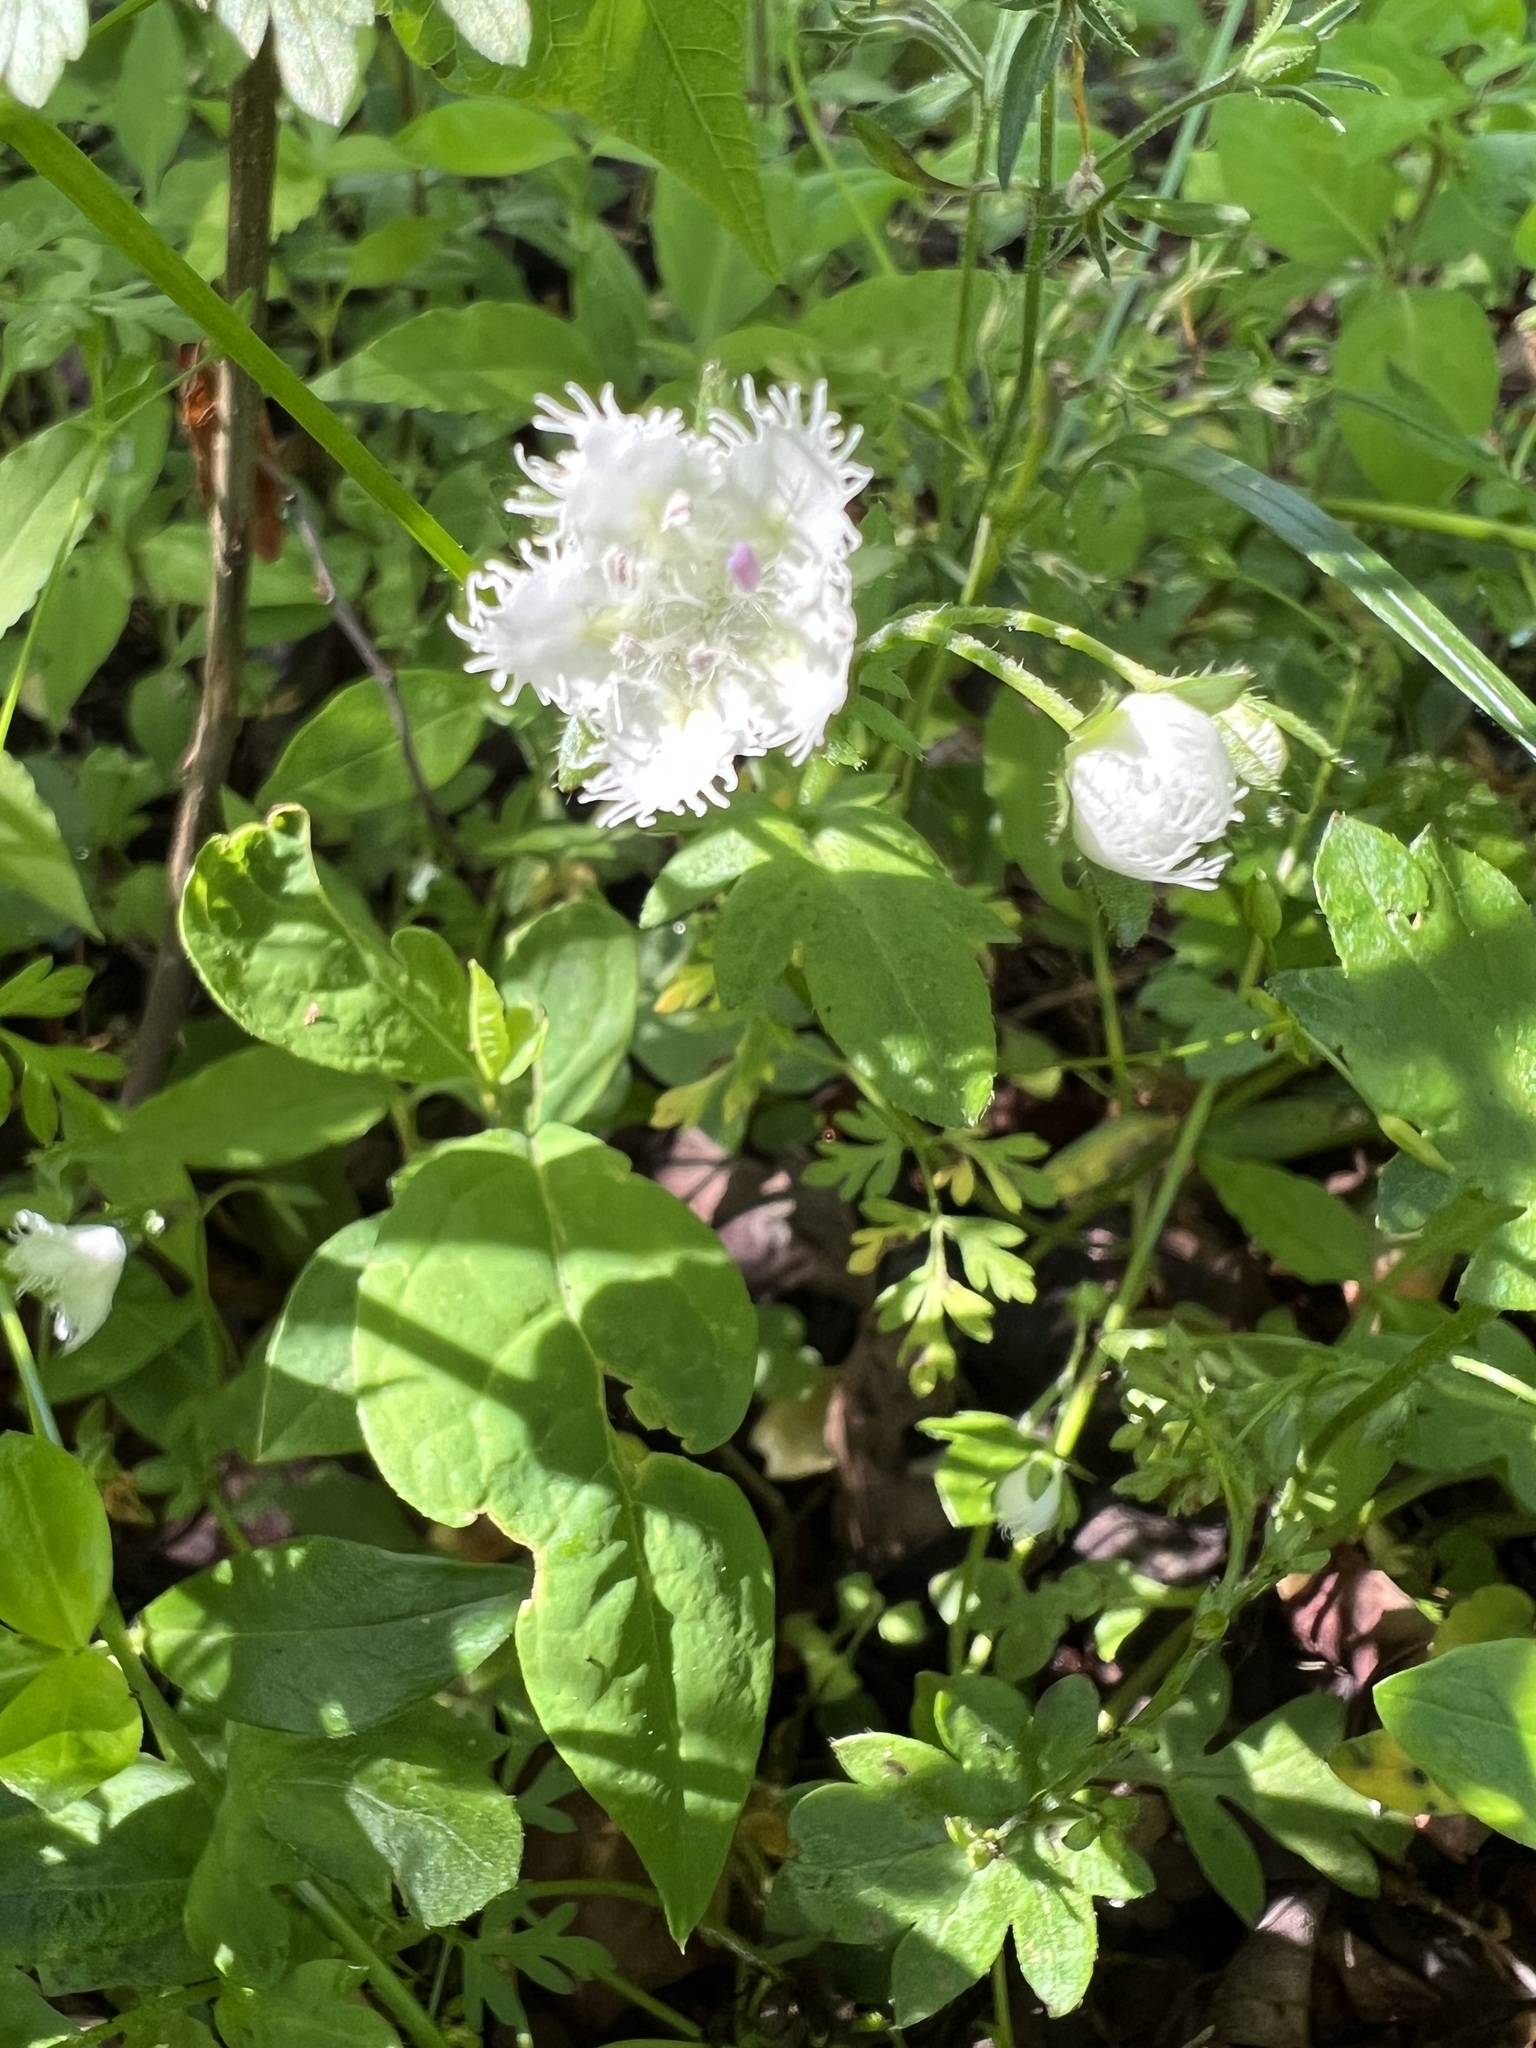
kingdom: Plantae
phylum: Tracheophyta
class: Magnoliopsida
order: Boraginales
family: Hydrophyllaceae
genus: Phacelia
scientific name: Phacelia fimbriata
